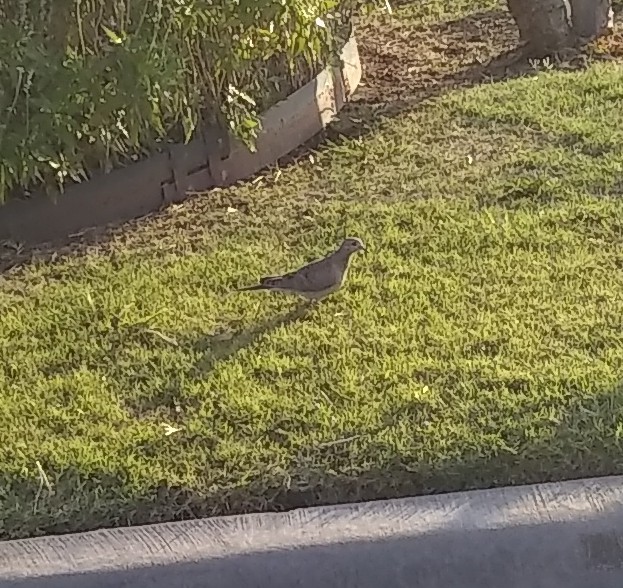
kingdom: Animalia
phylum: Chordata
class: Aves
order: Columbiformes
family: Columbidae
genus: Zenaida
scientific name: Zenaida macroura
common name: Mourning dove
